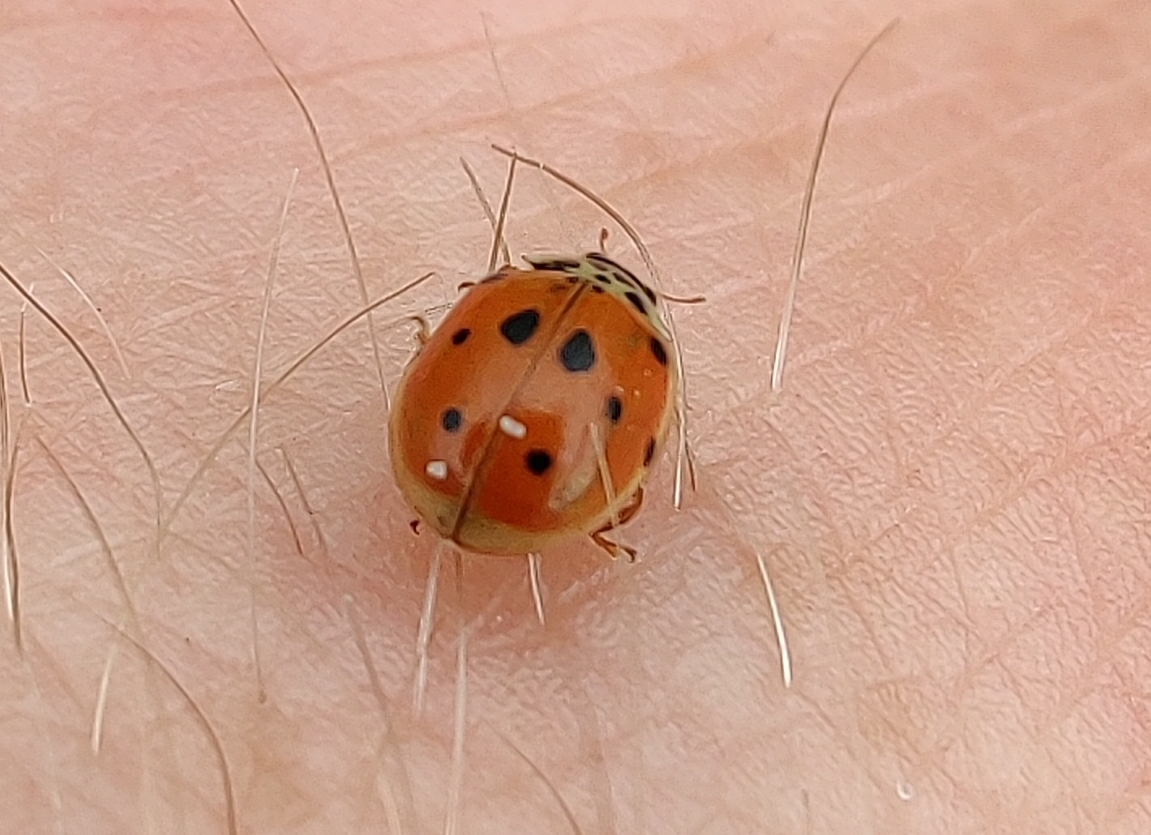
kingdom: Animalia
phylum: Arthropoda
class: Insecta
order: Coleoptera
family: Coccinellidae
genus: Adalia
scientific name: Adalia decempunctata
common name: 10-spot ladybird
